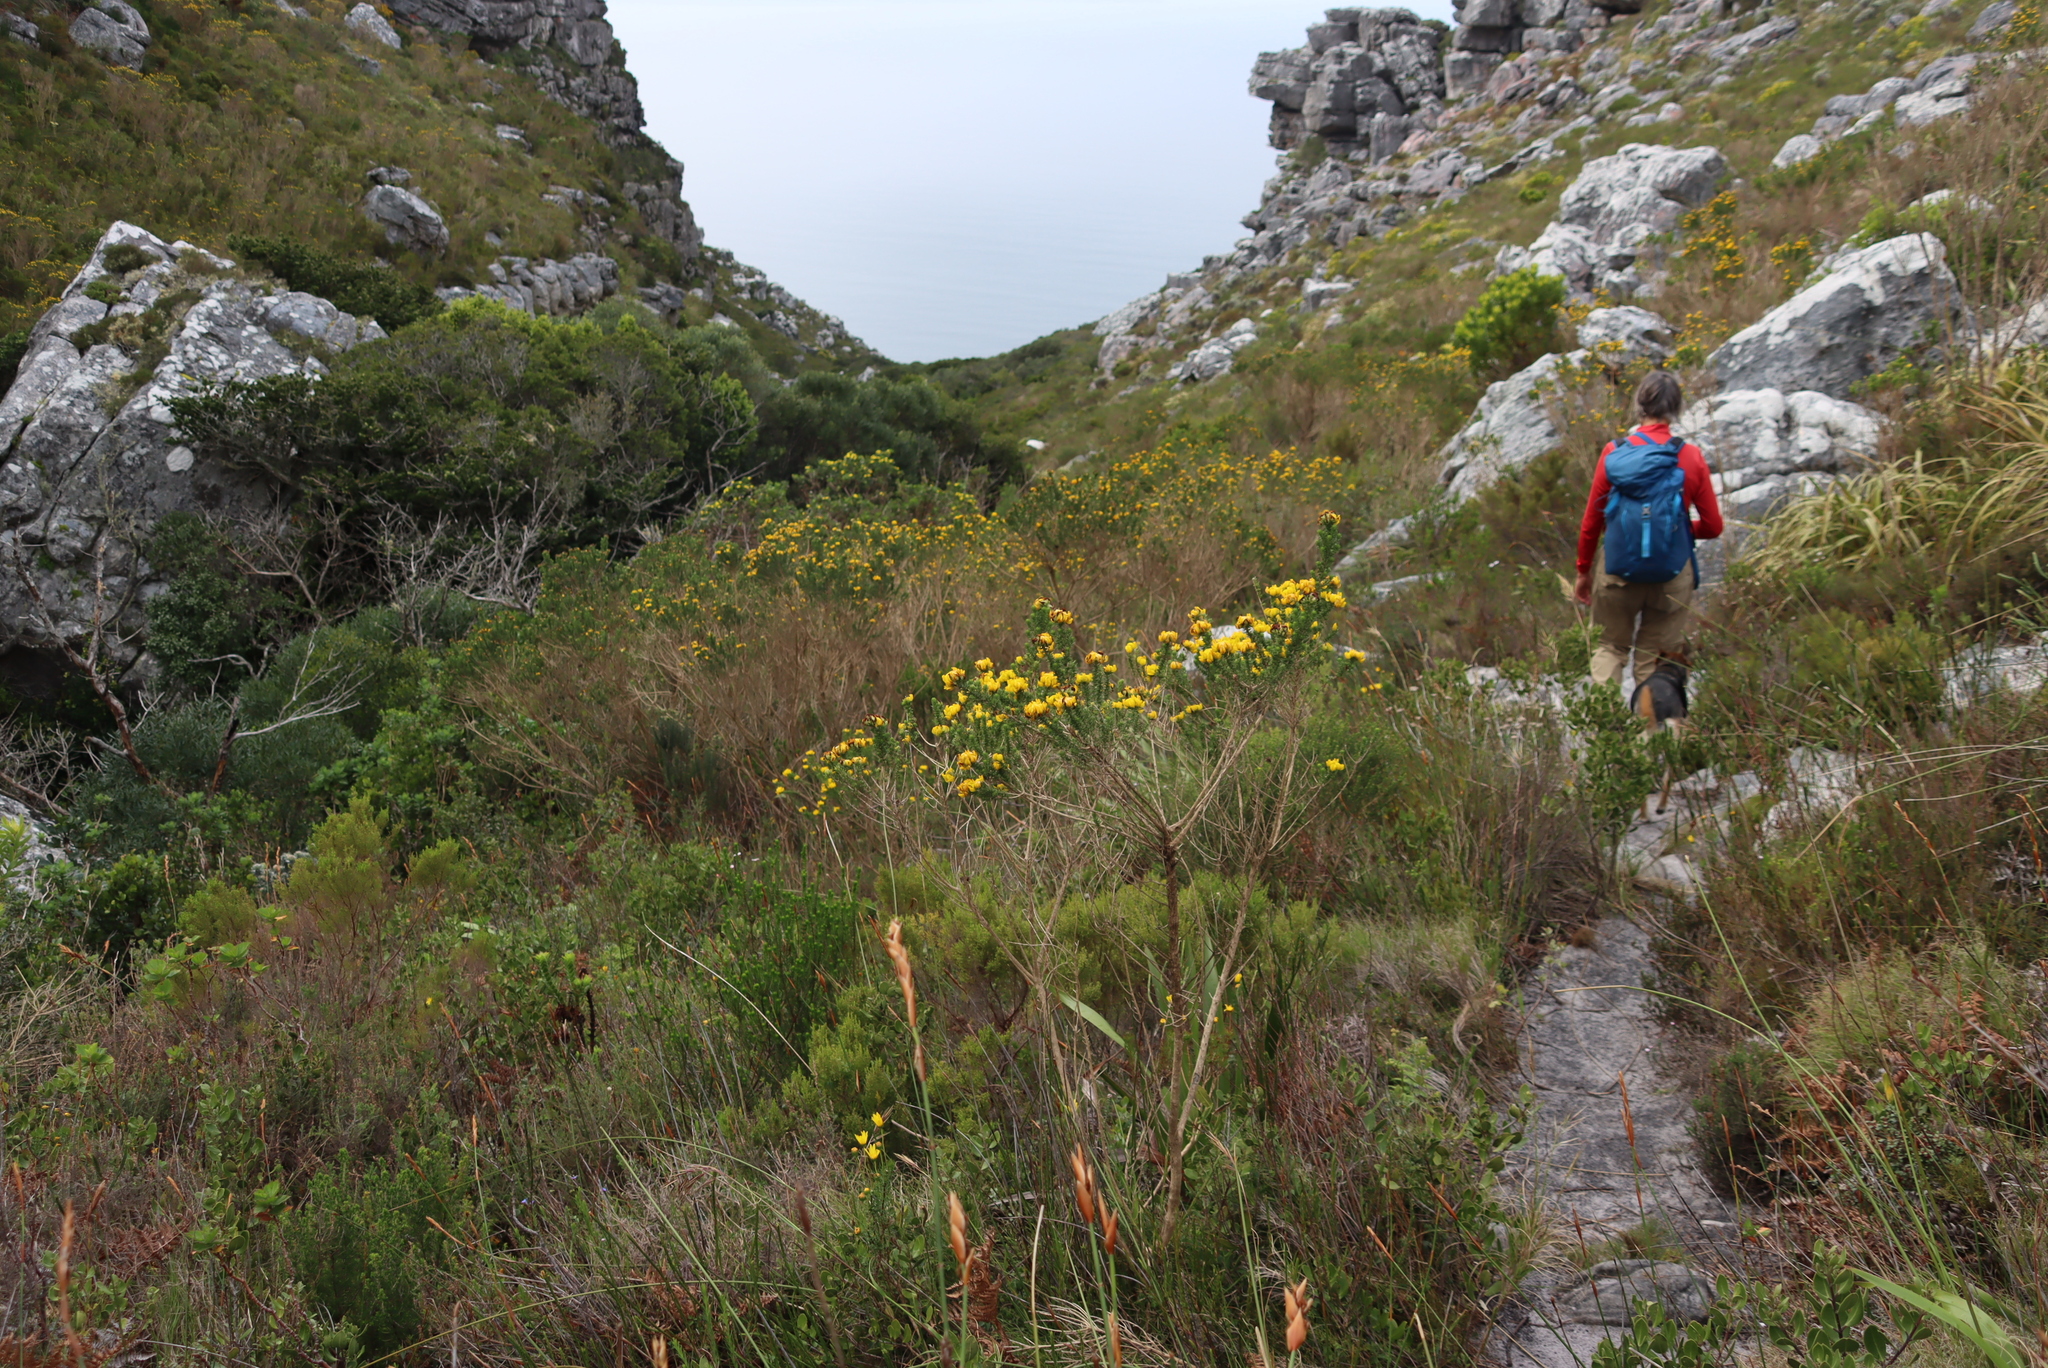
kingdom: Plantae
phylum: Tracheophyta
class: Magnoliopsida
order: Fabales
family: Fabaceae
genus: Aspalathus
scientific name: Aspalathus capitata
